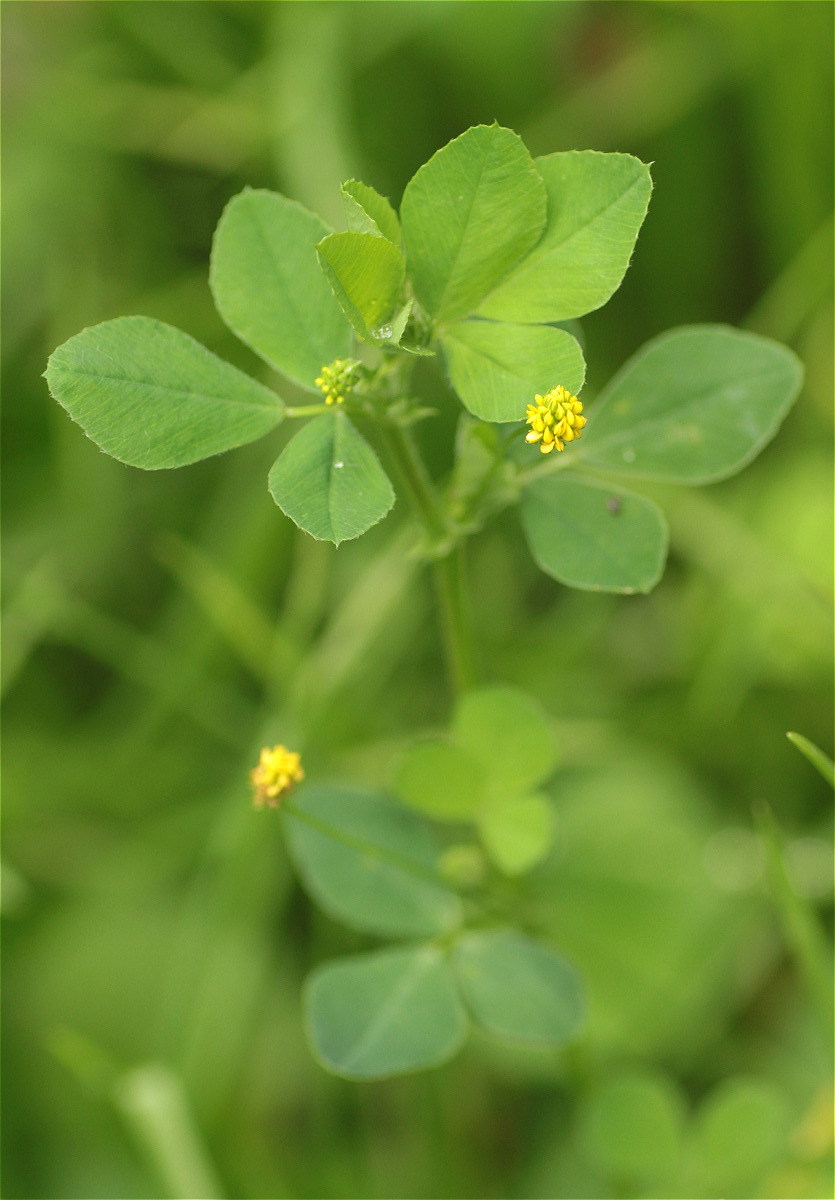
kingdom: Plantae
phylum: Tracheophyta
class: Magnoliopsida
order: Fabales
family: Fabaceae
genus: Medicago
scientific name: Medicago lupulina
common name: Black medick
